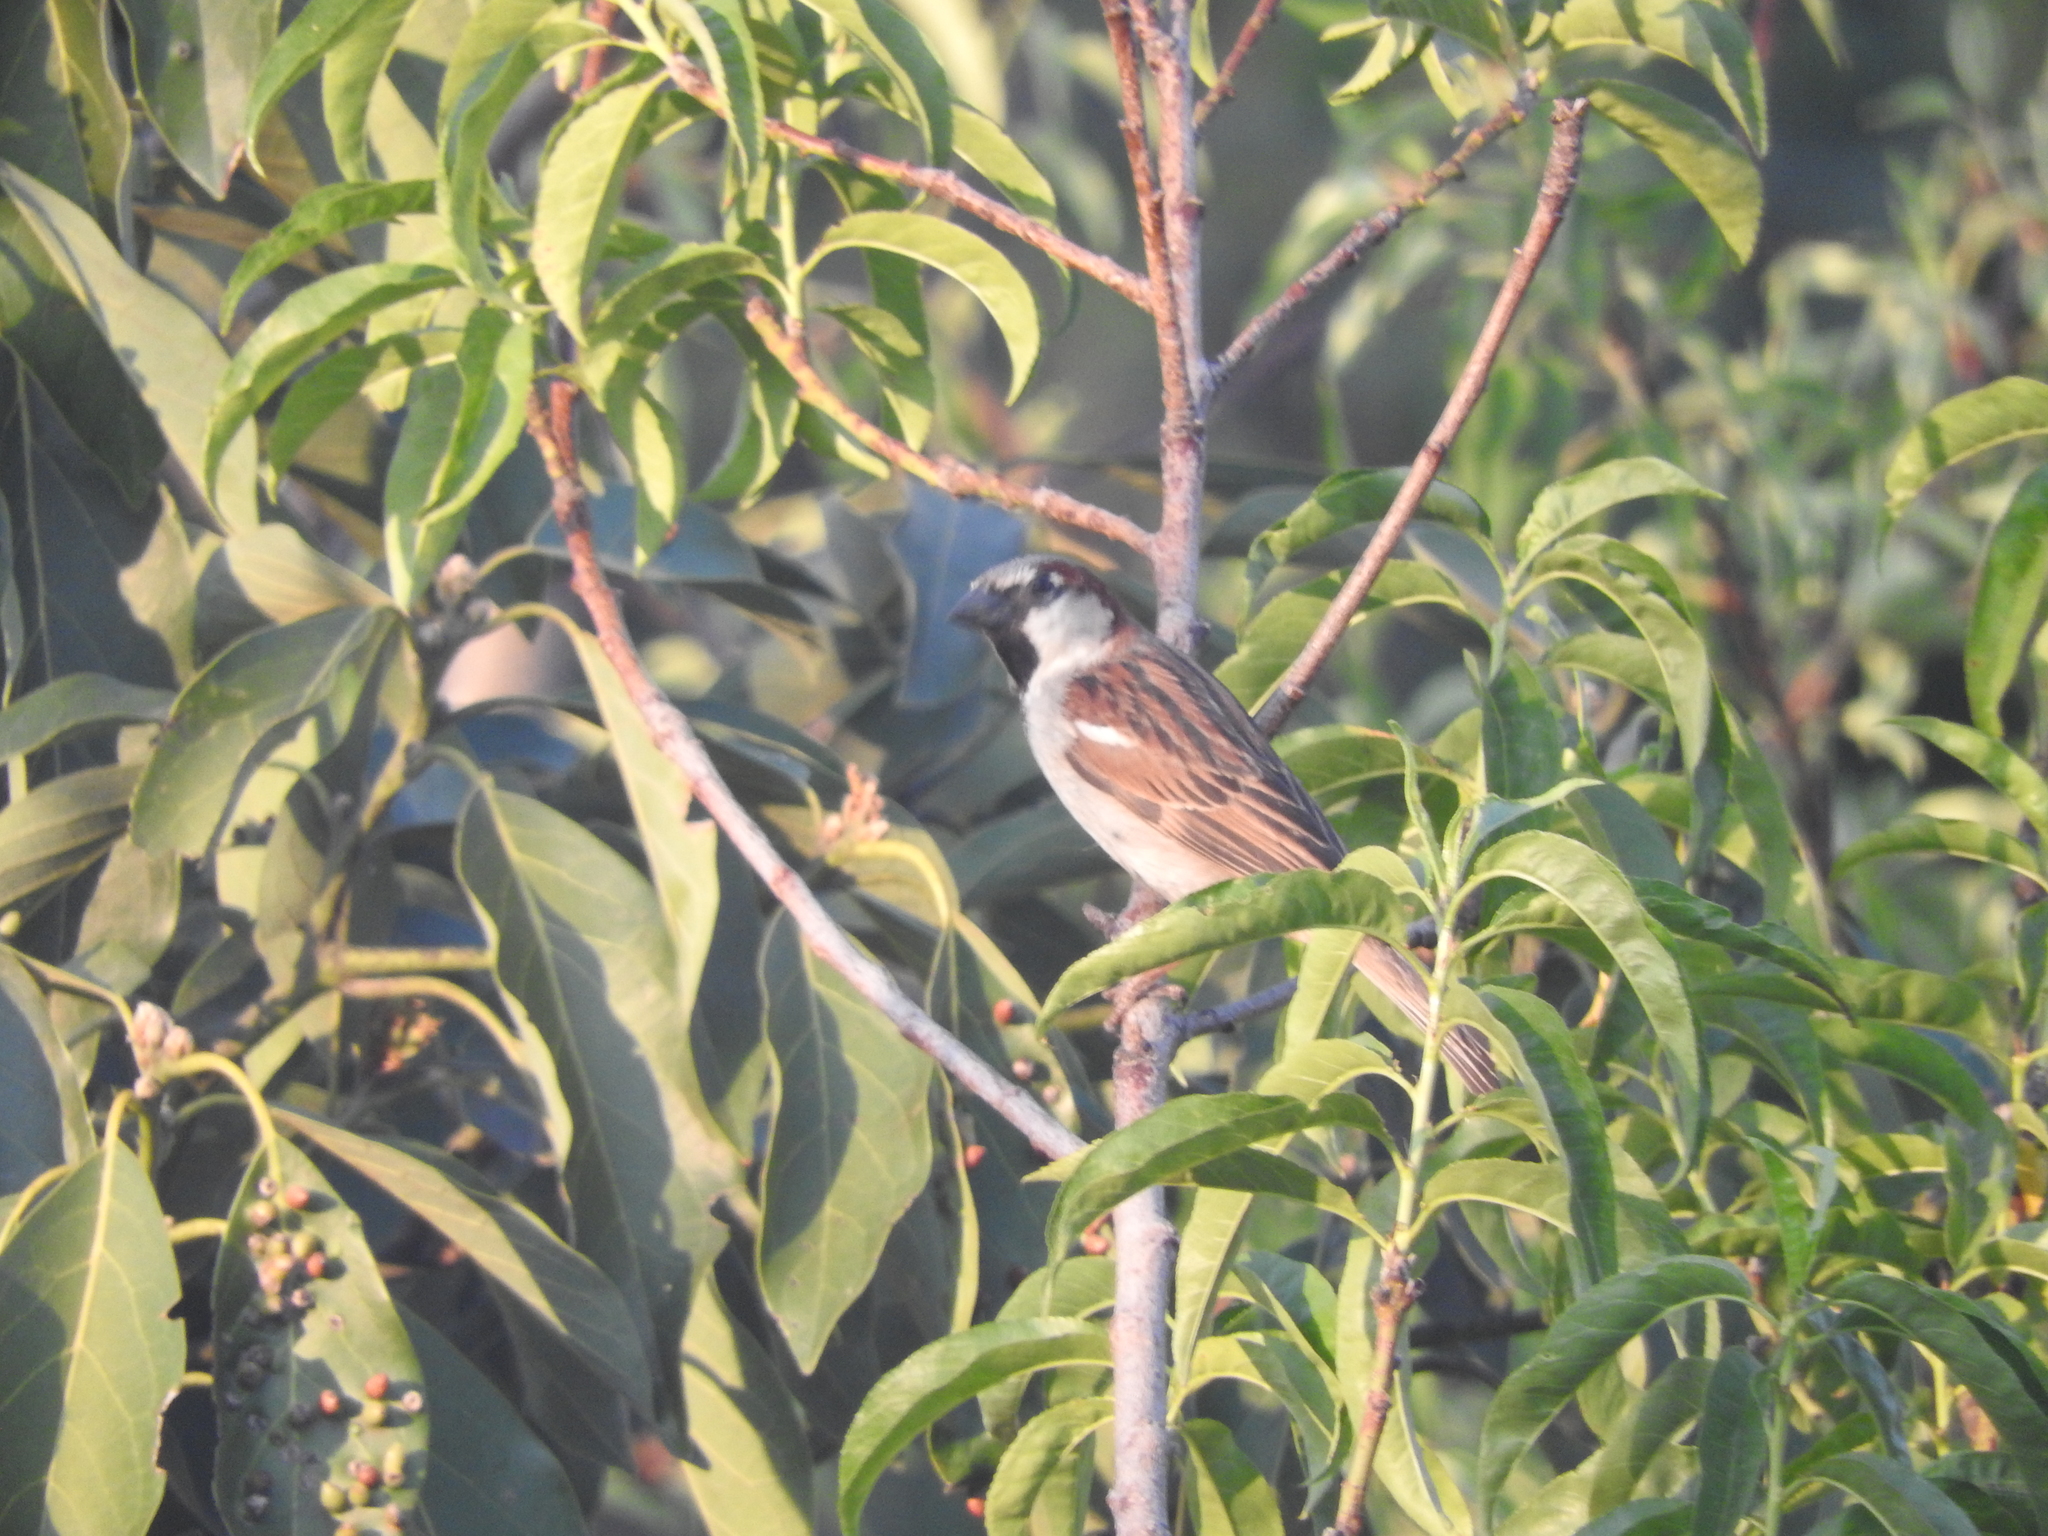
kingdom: Animalia
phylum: Chordata
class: Aves
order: Passeriformes
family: Passeridae
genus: Passer
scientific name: Passer domesticus
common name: House sparrow
